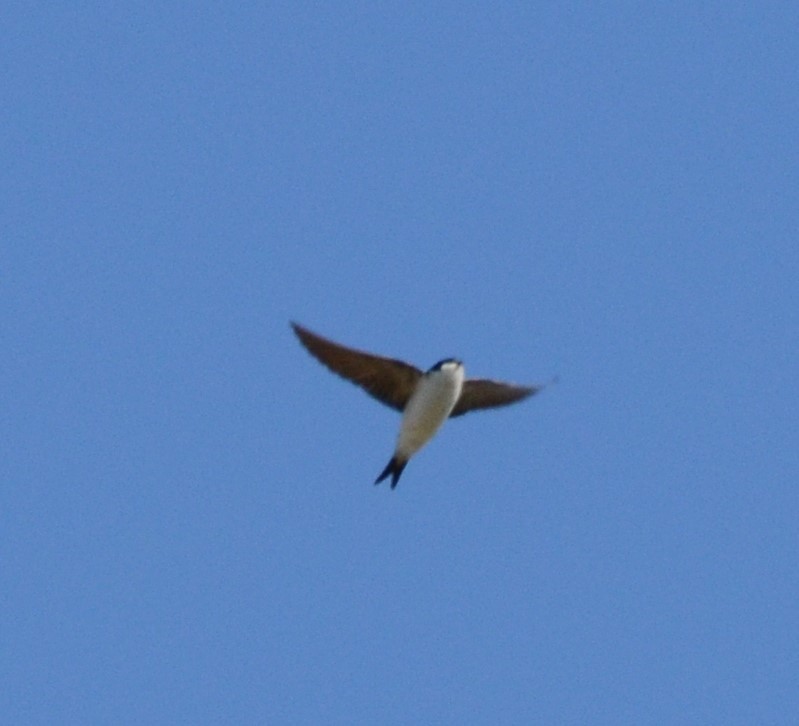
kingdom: Animalia
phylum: Chordata
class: Aves
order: Passeriformes
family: Hirundinidae
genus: Delichon
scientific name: Delichon urbicum
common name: Common house martin
